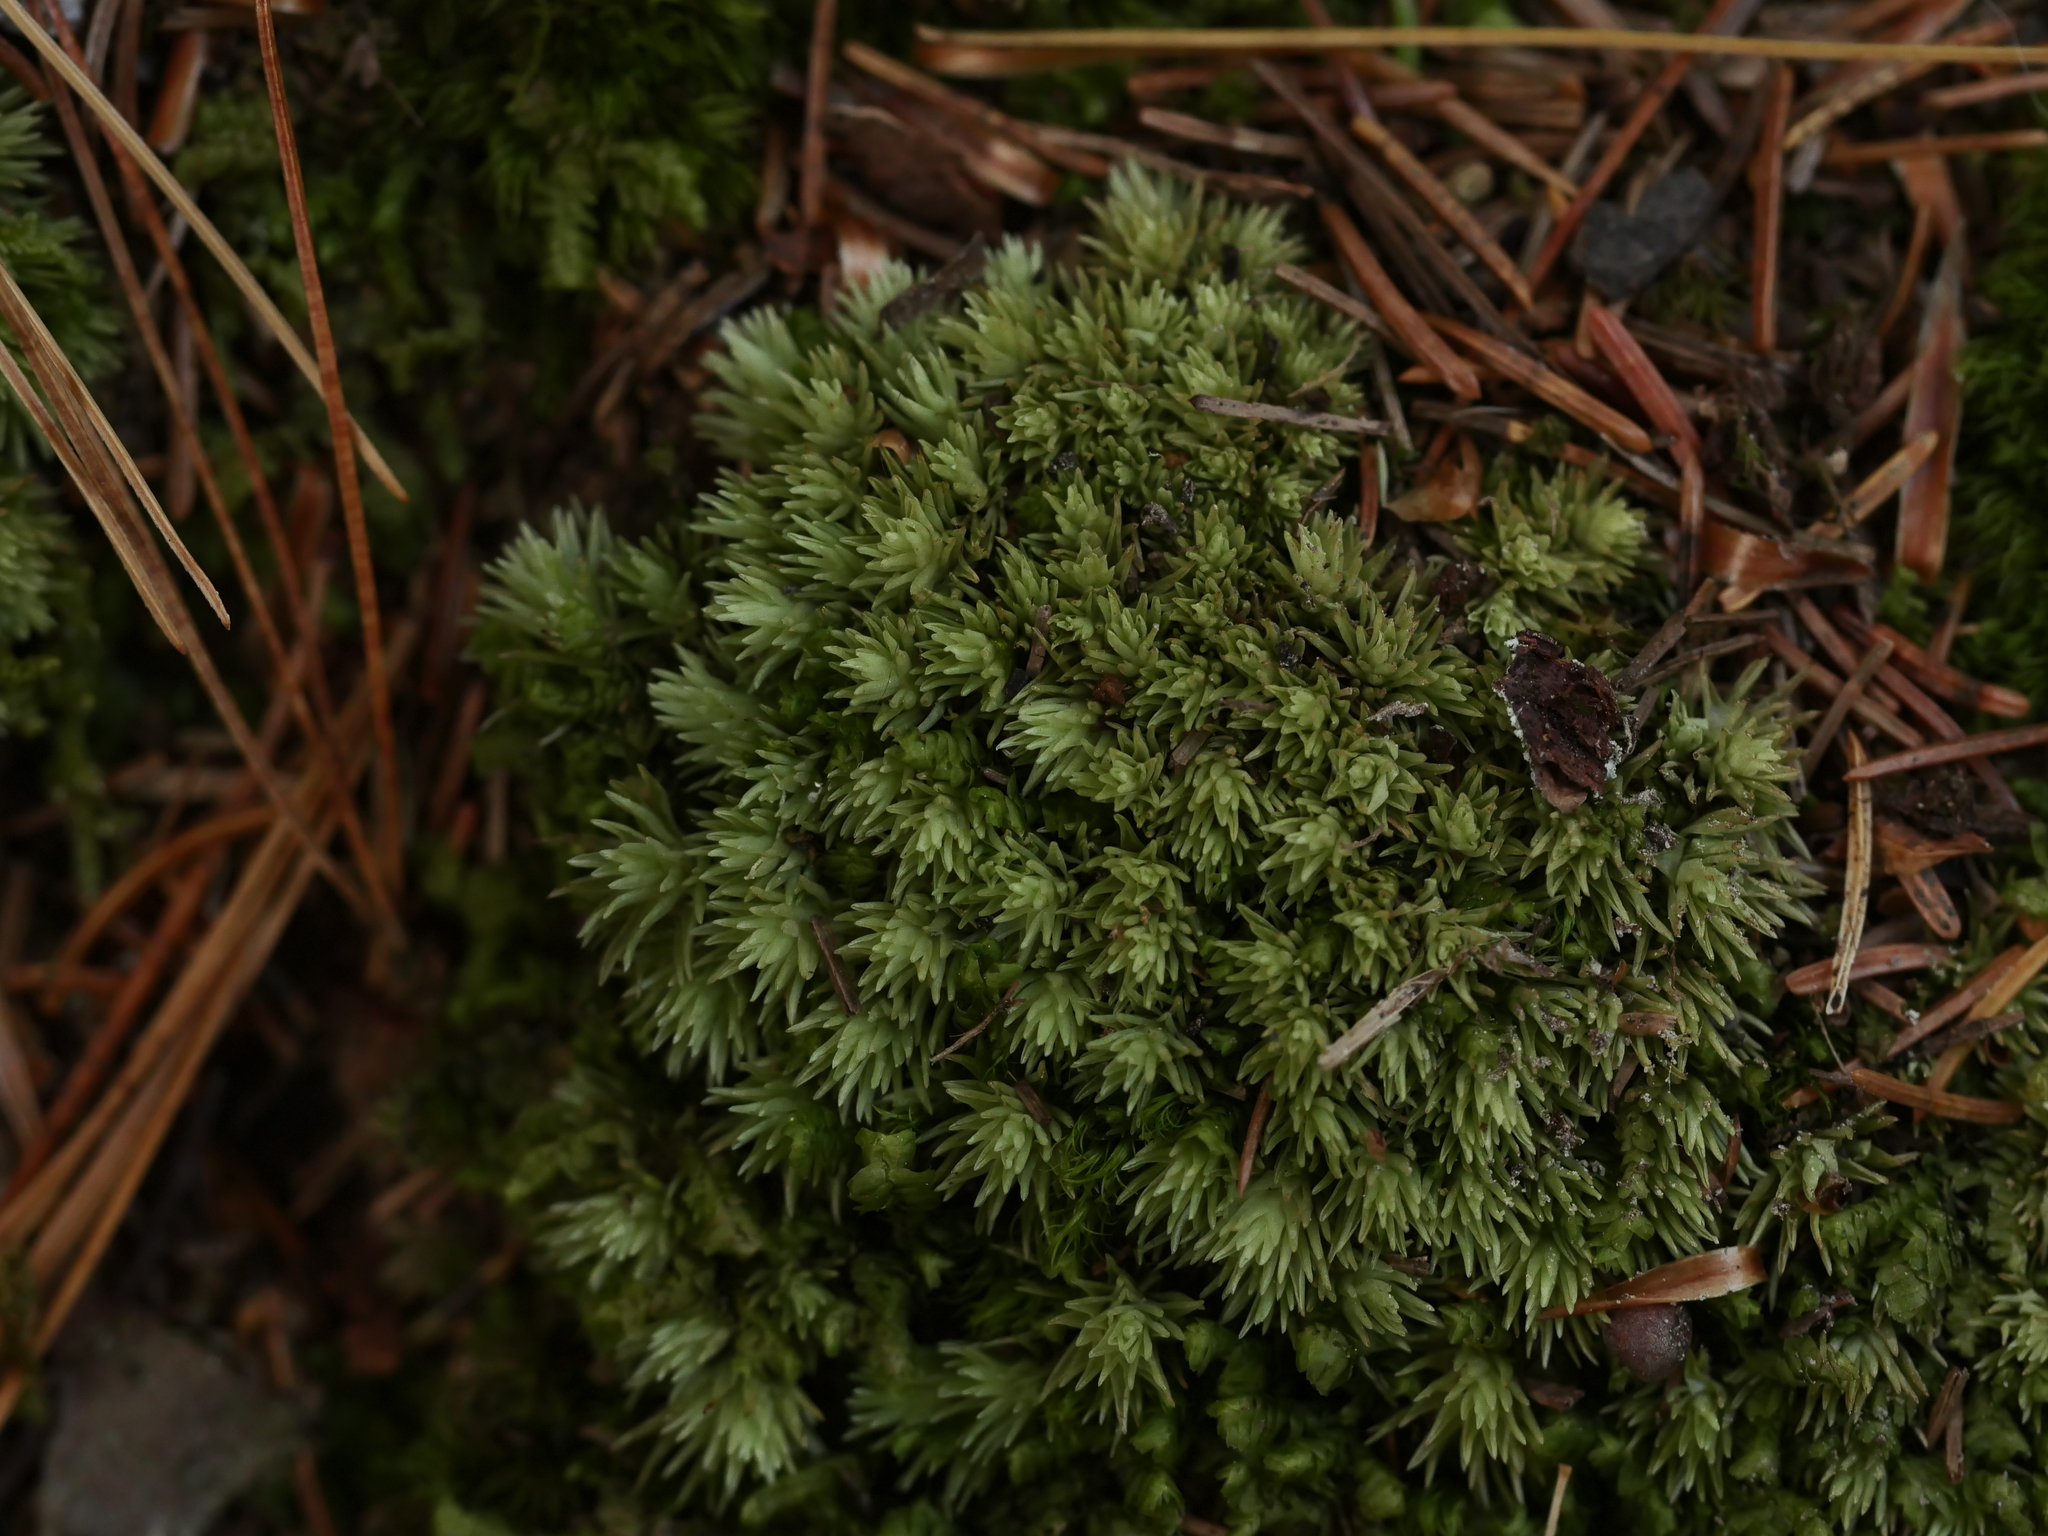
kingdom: Plantae
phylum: Bryophyta
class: Bryopsida
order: Dicranales
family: Leucobryaceae
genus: Leucobryum
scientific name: Leucobryum glaucum
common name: Large white-moss
